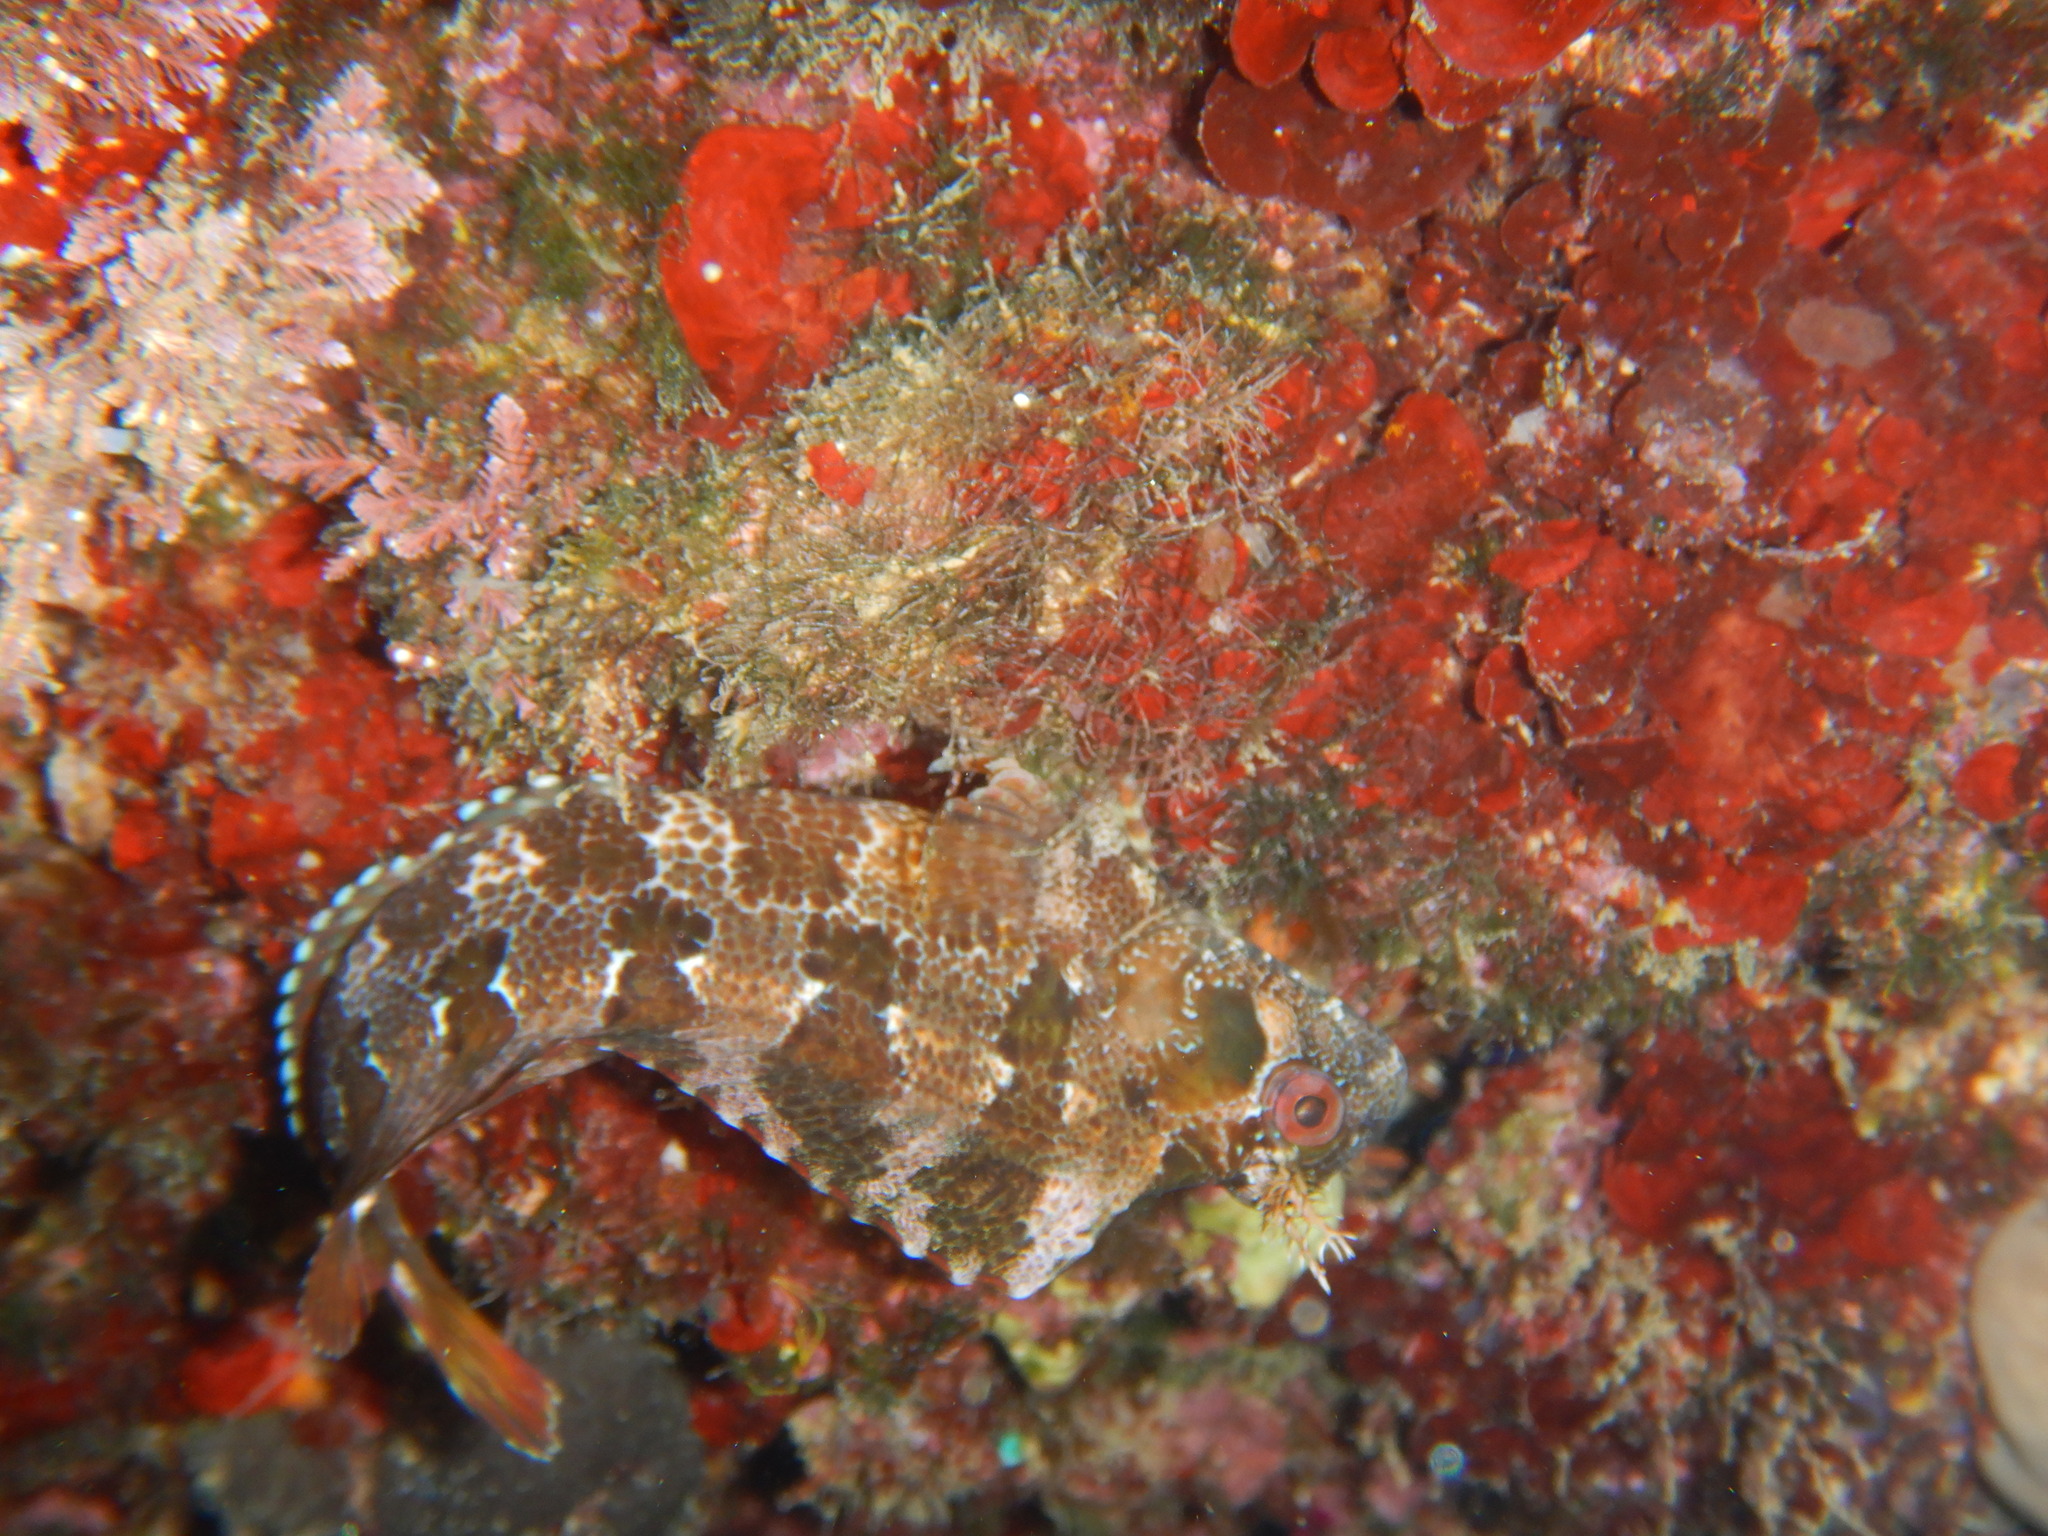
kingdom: Animalia
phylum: Chordata
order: Perciformes
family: Blenniidae
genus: Parablennius
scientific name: Parablennius gattorugine
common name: Tompot blenny
